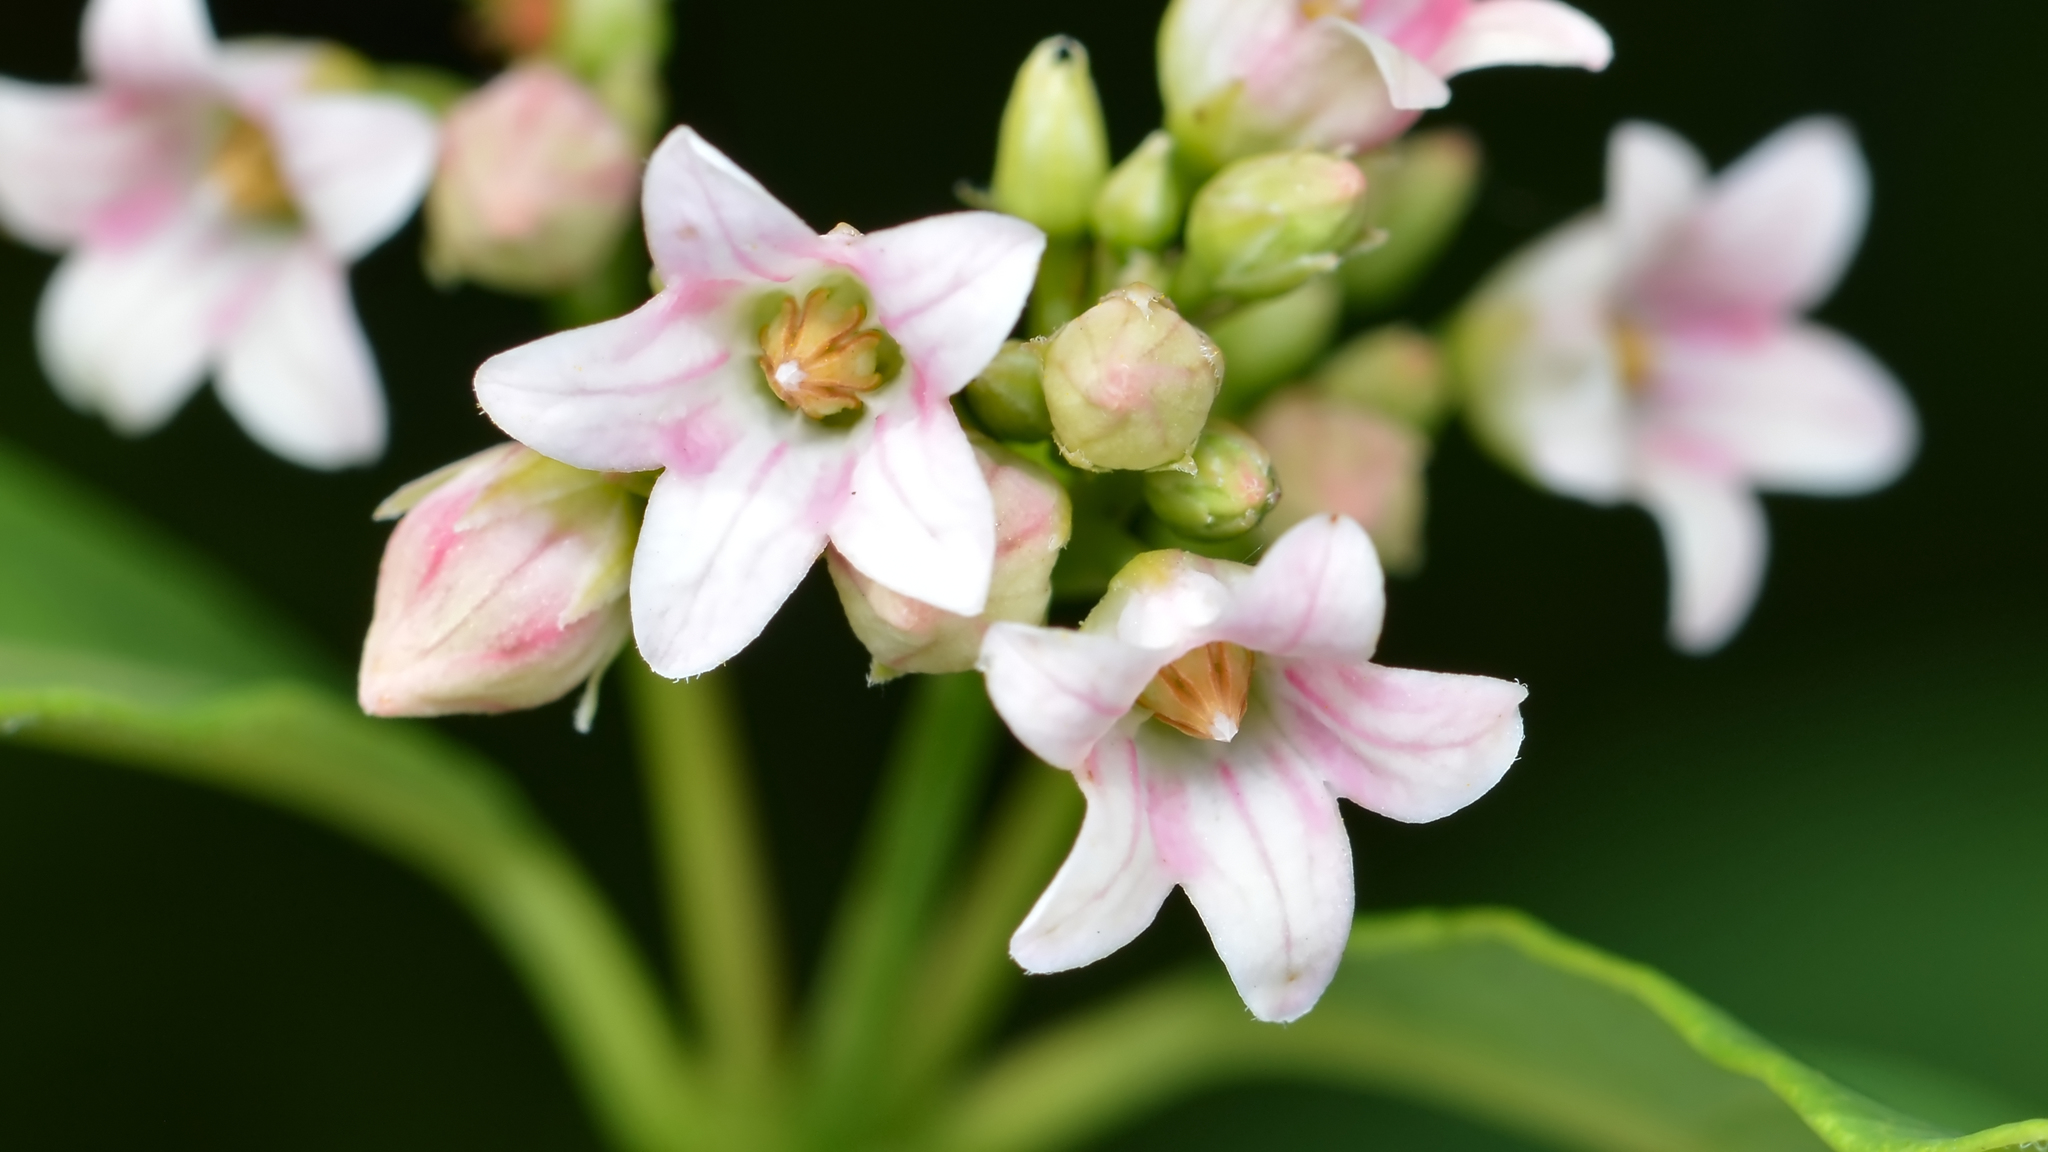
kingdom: Plantae
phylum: Tracheophyta
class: Magnoliopsida
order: Gentianales
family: Apocynaceae
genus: Apocynum
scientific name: Apocynum floribundum
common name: Hybrid dogbane
